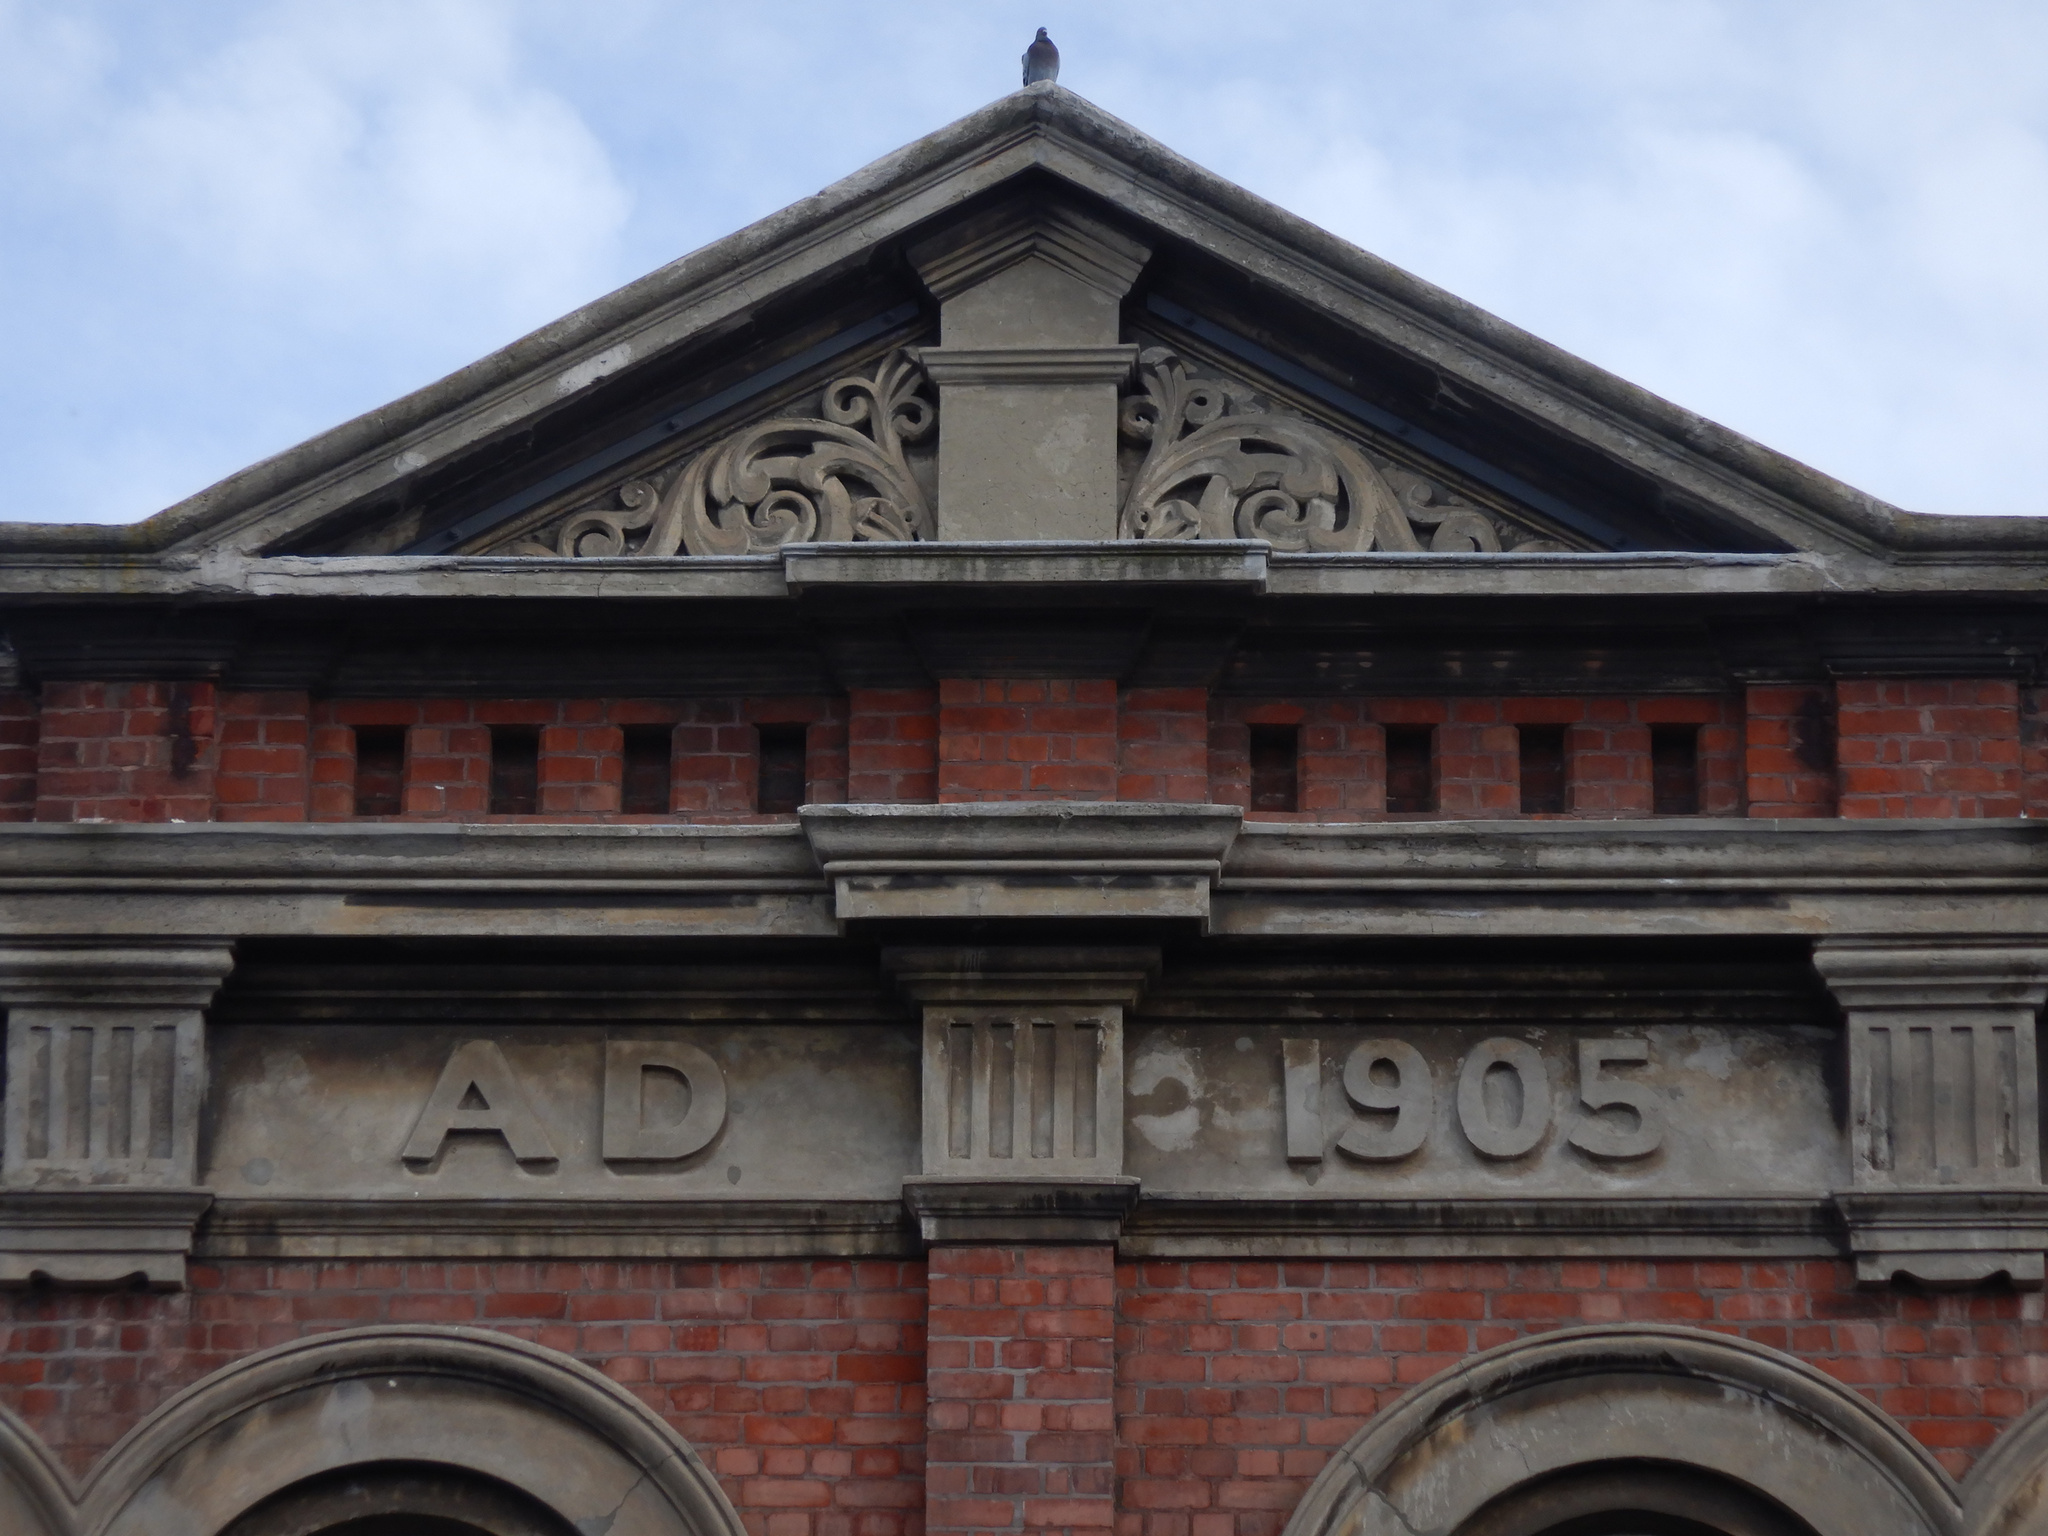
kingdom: Animalia
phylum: Chordata
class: Aves
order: Columbiformes
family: Columbidae
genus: Columba
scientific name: Columba livia
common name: Rock pigeon
